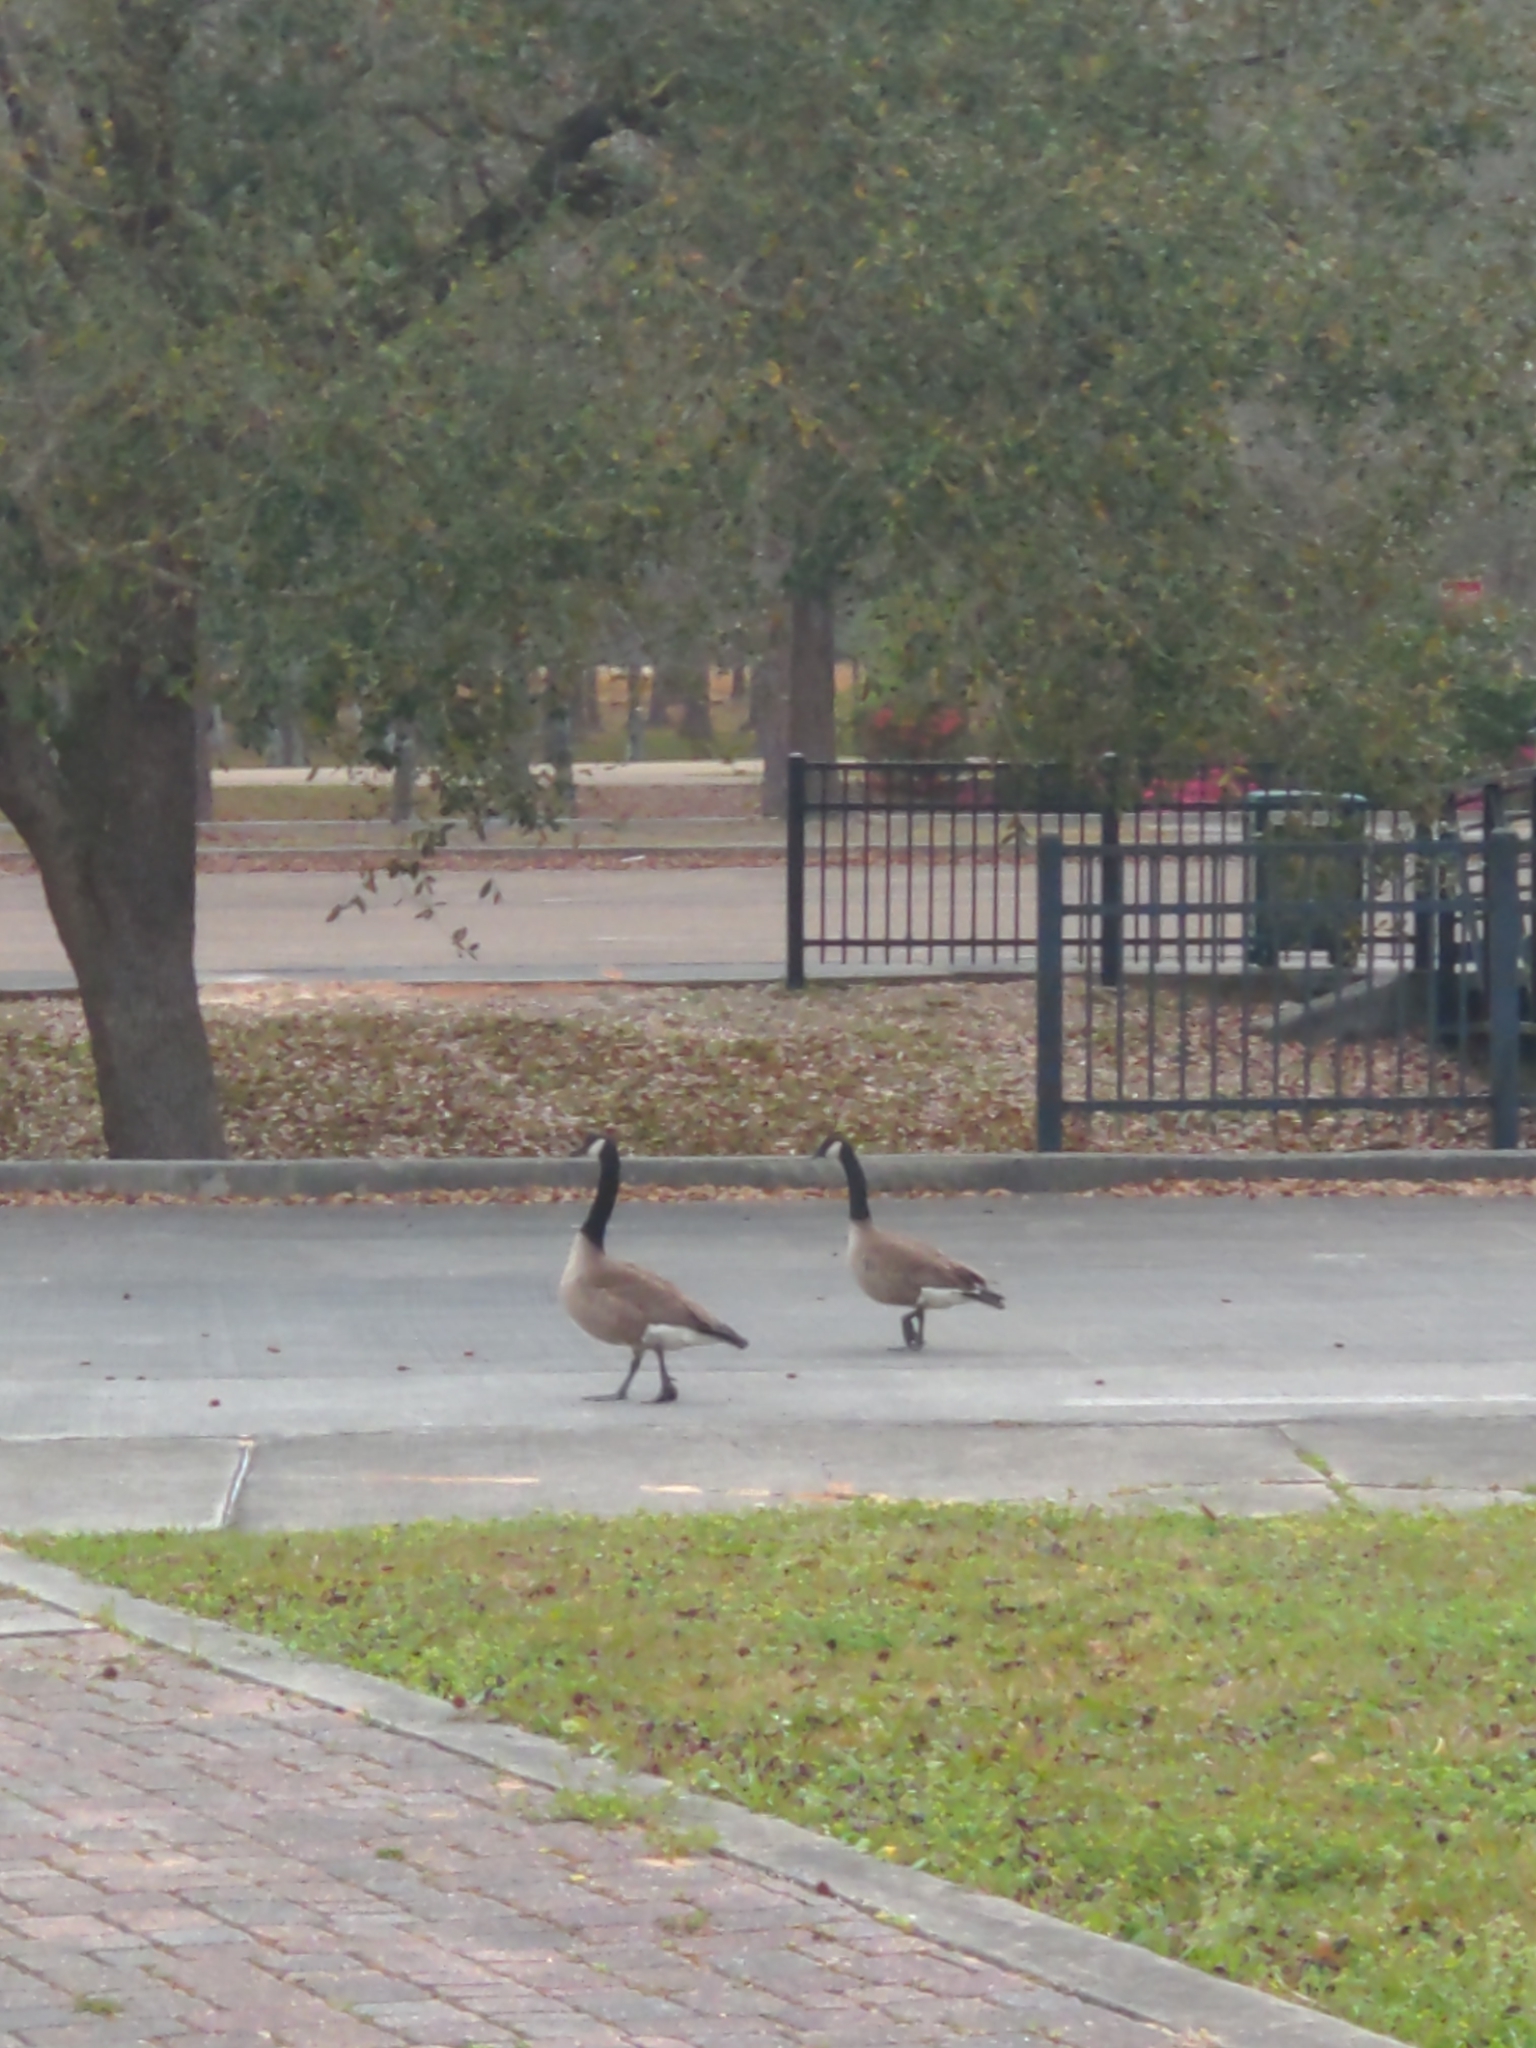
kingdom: Animalia
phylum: Chordata
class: Aves
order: Anseriformes
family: Anatidae
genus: Branta
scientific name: Branta canadensis
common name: Canada goose
